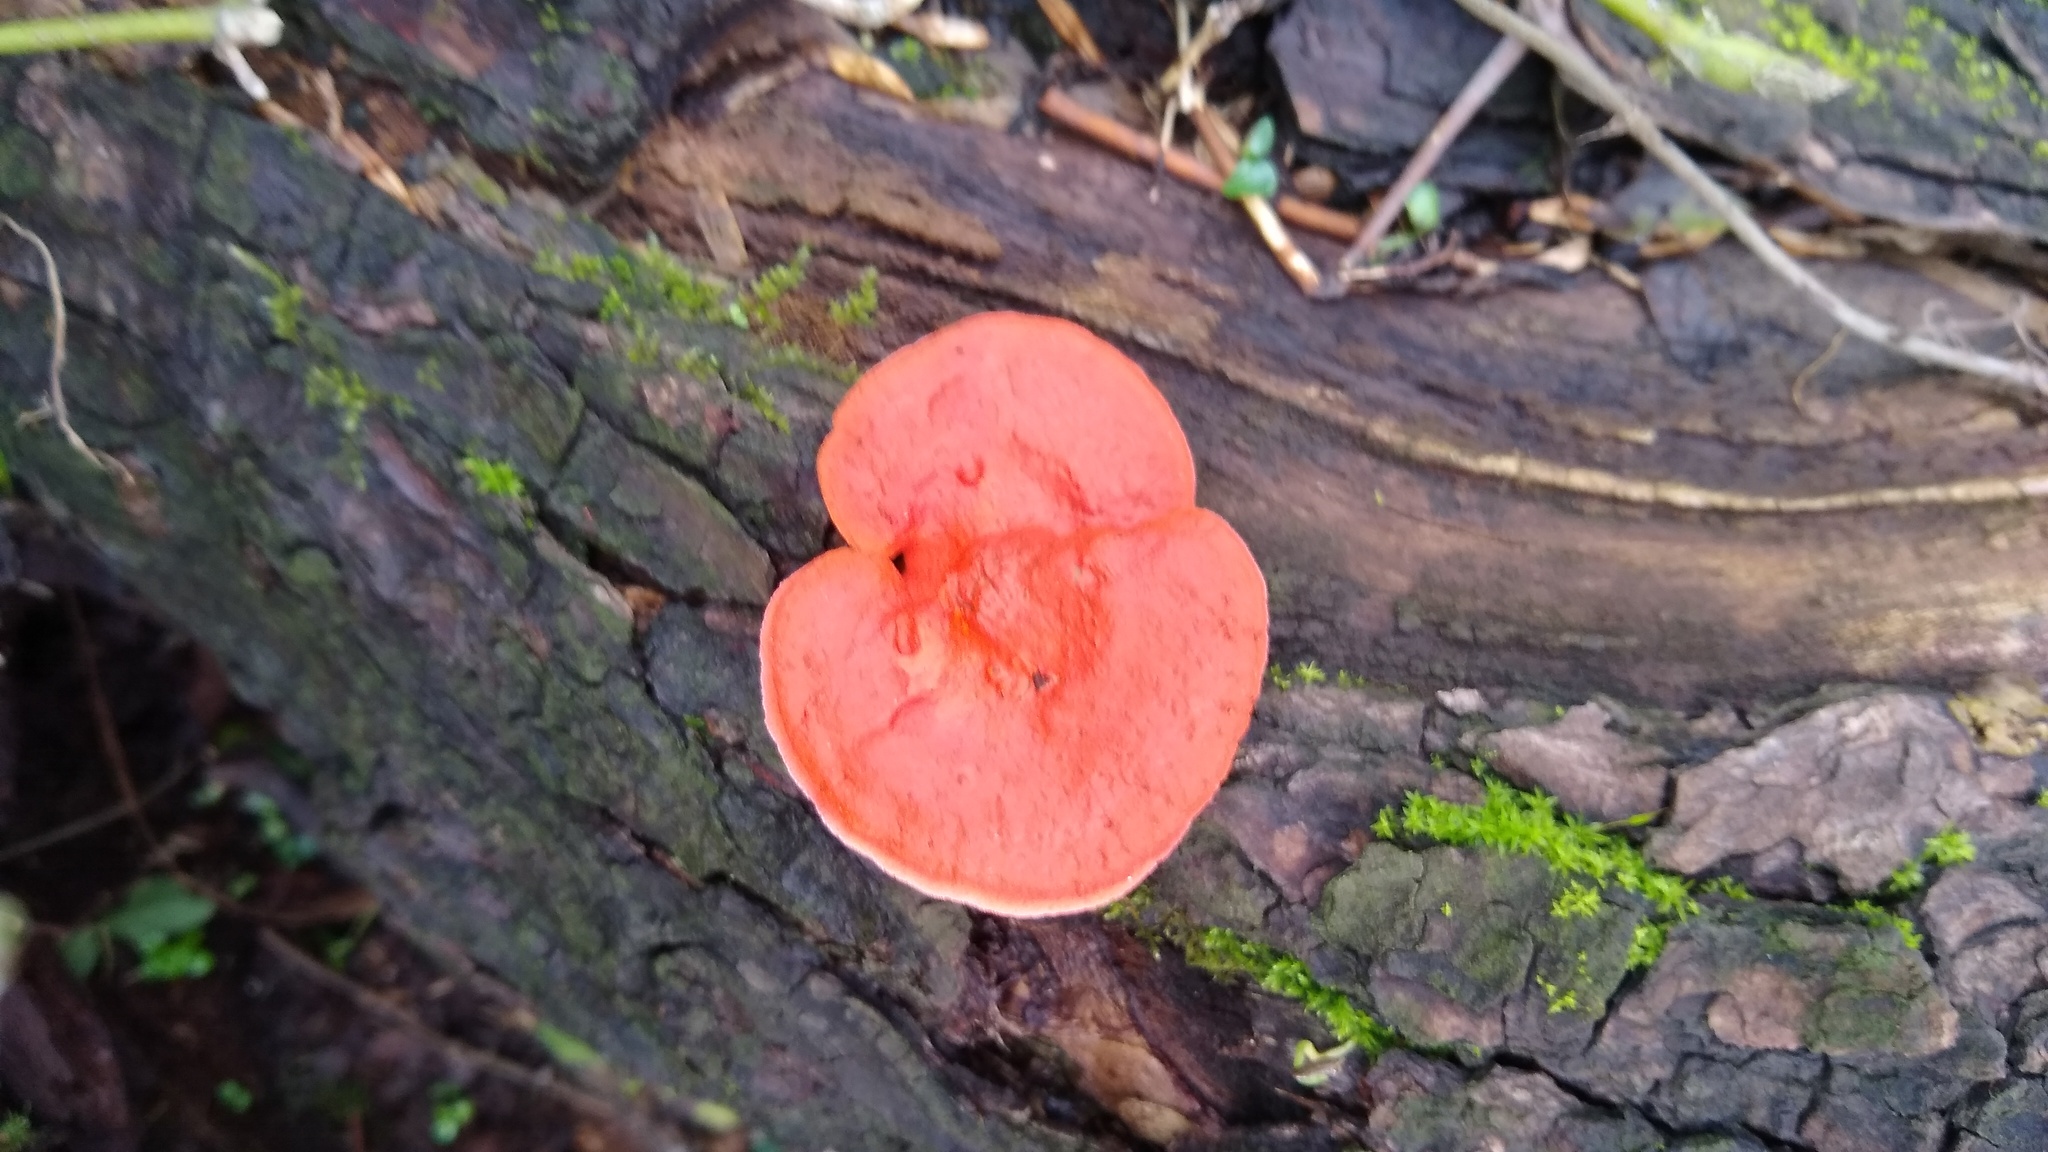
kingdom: Fungi
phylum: Basidiomycota
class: Agaricomycetes
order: Polyporales
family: Polyporaceae
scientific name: Polyporaceae
